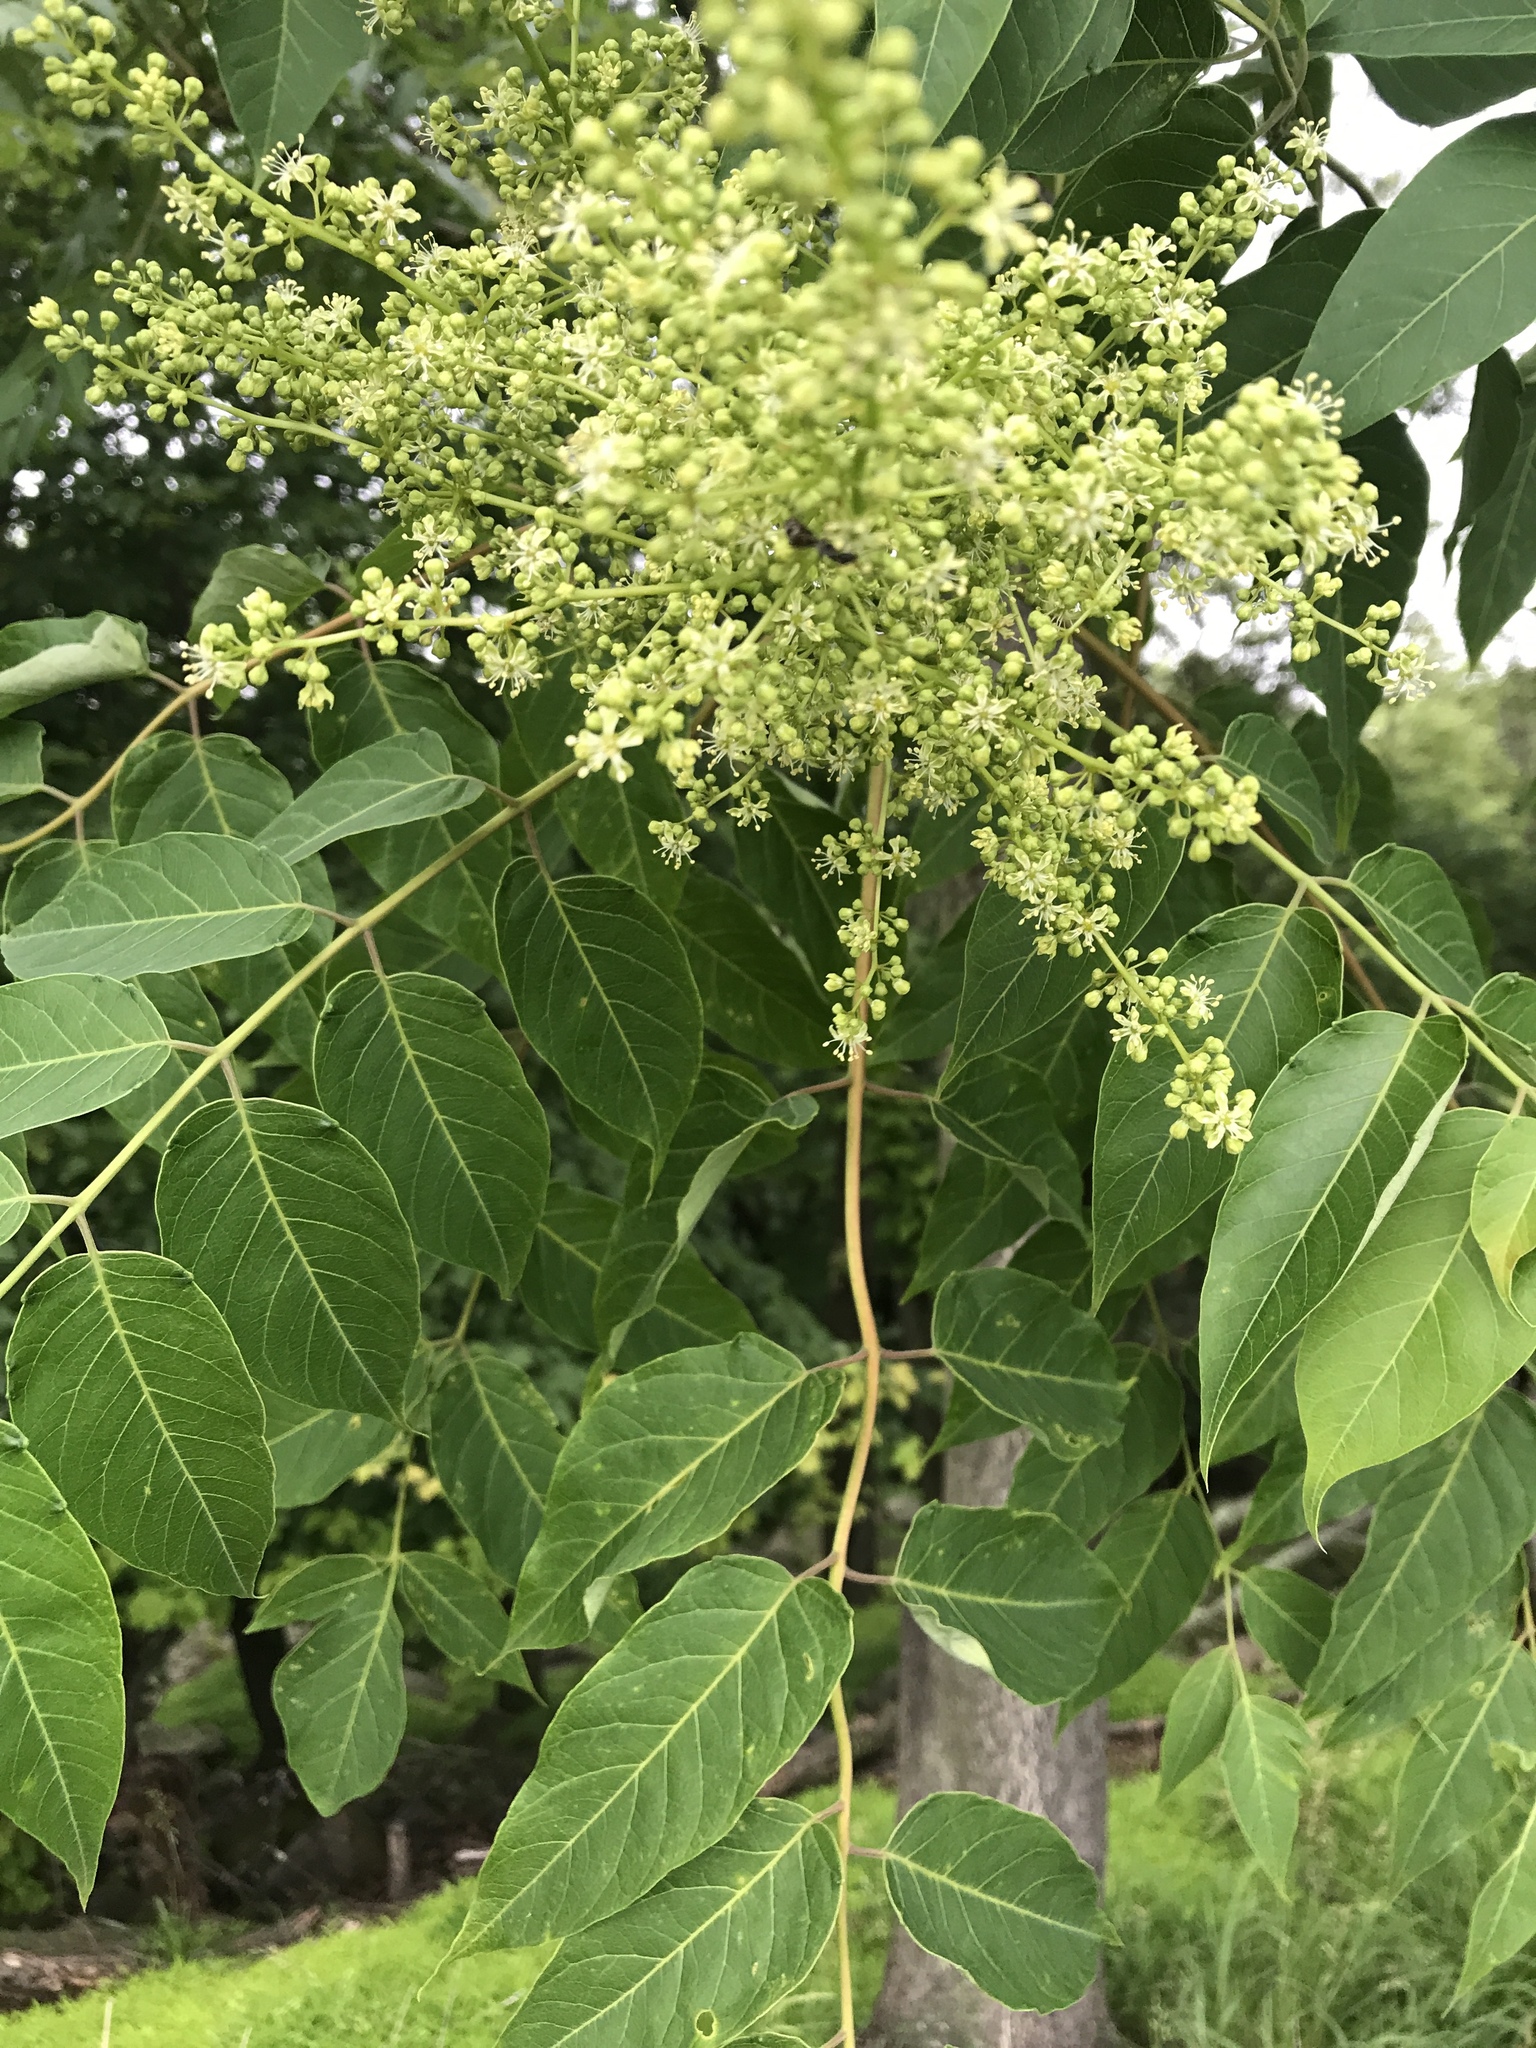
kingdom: Plantae
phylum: Tracheophyta
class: Magnoliopsida
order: Sapindales
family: Simaroubaceae
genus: Ailanthus
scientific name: Ailanthus altissima
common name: Tree-of-heaven
